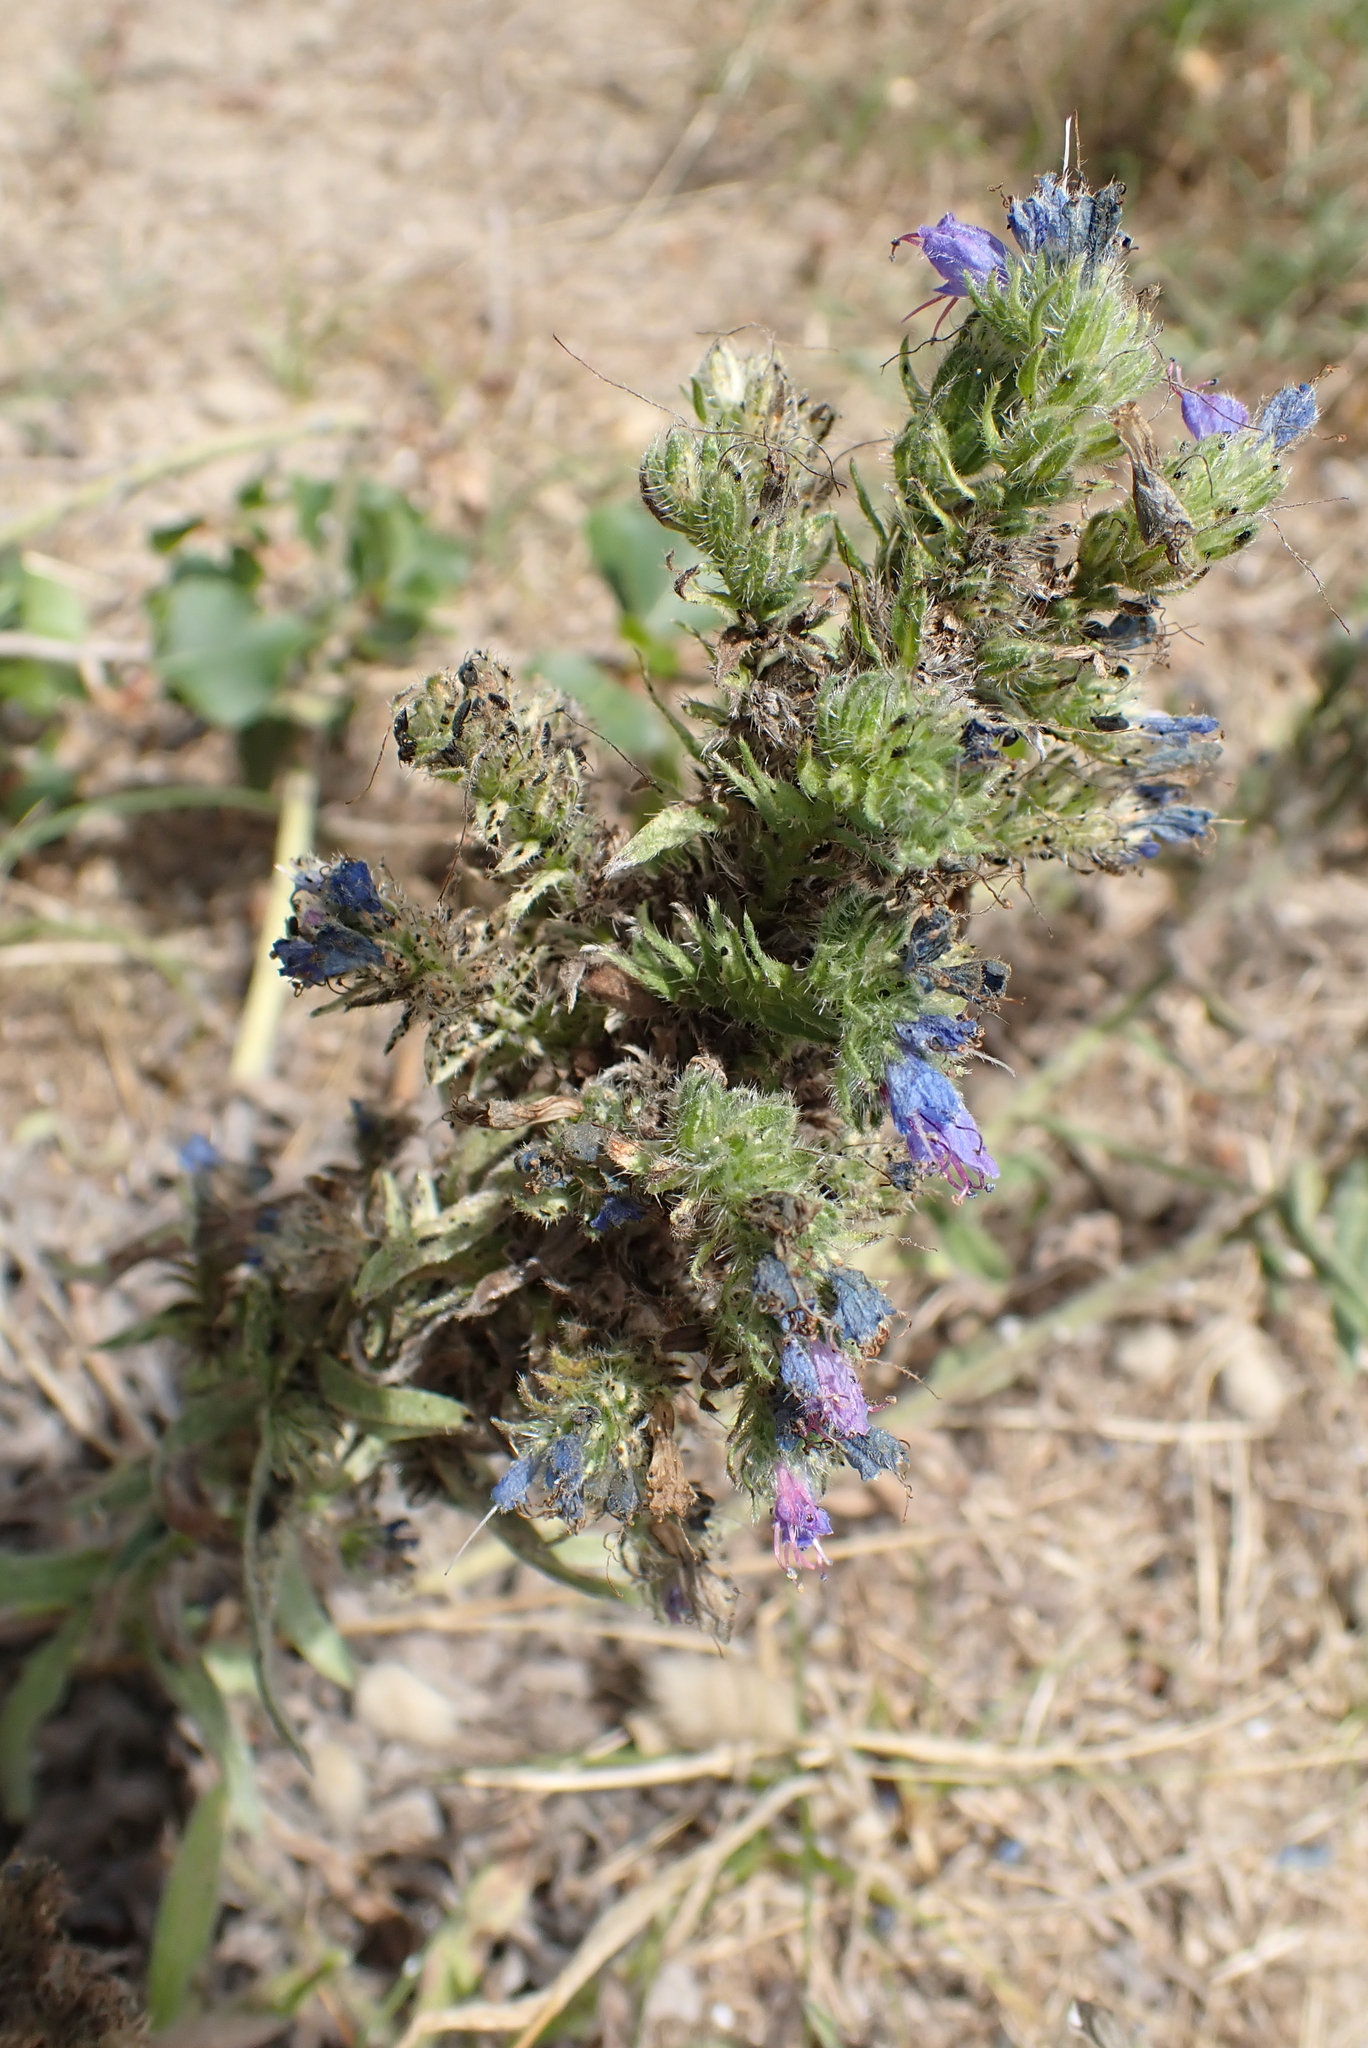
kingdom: Plantae
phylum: Tracheophyta
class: Magnoliopsida
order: Boraginales
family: Boraginaceae
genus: Echium
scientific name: Echium vulgare
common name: Common viper's bugloss
